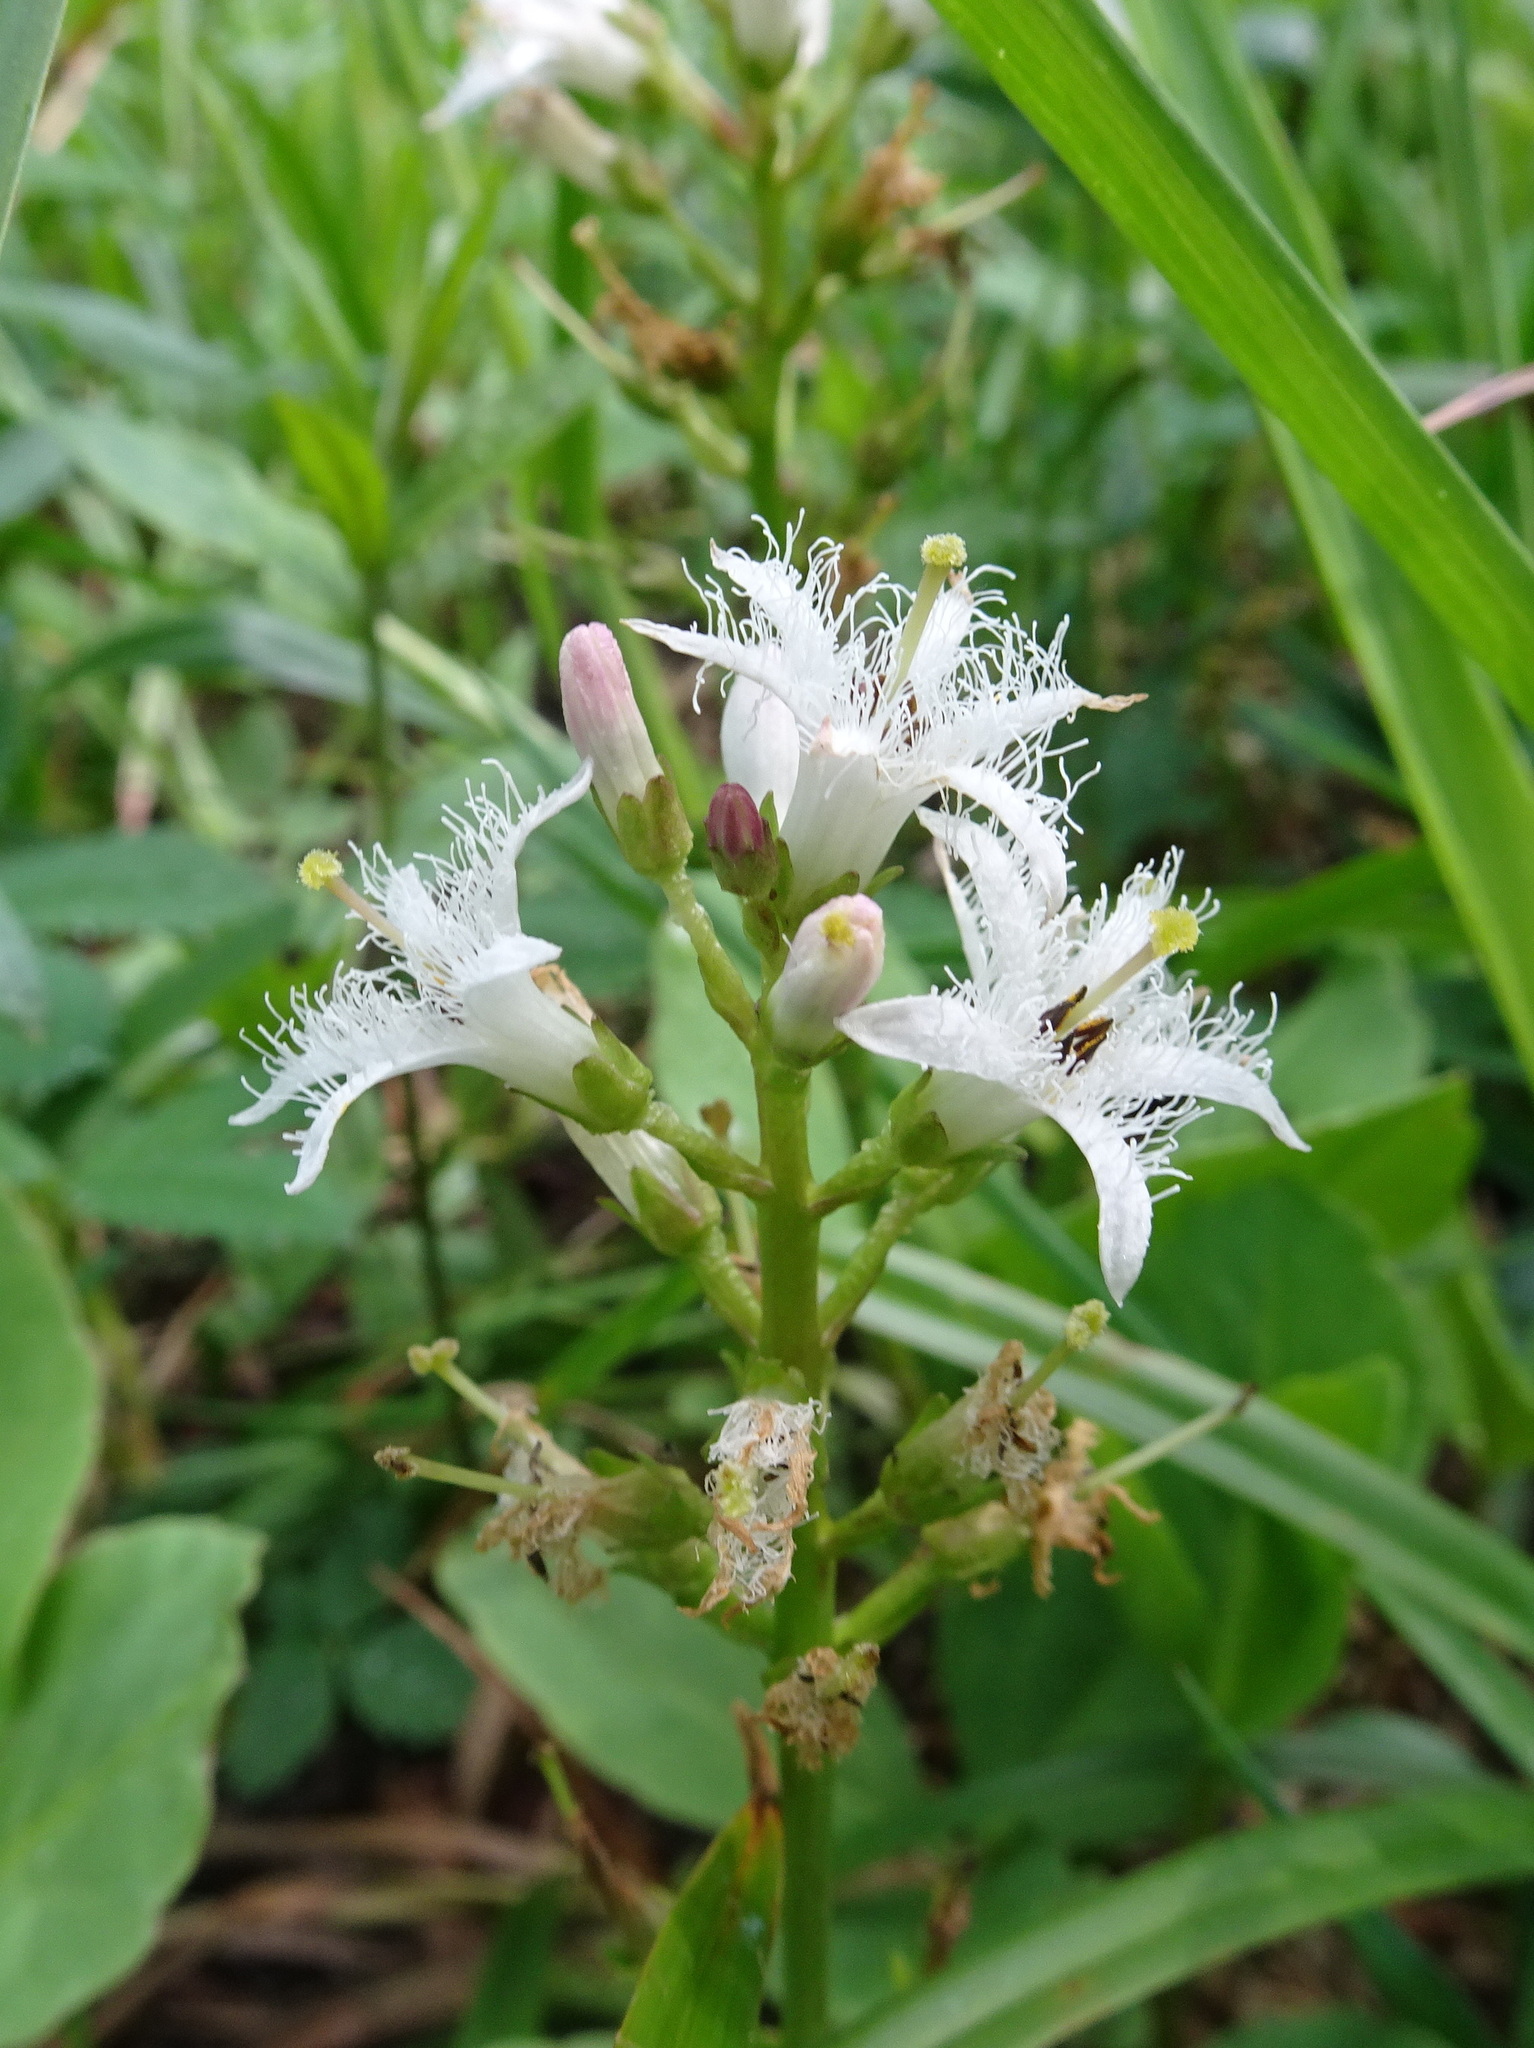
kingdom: Plantae
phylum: Tracheophyta
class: Magnoliopsida
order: Asterales
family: Menyanthaceae
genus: Menyanthes
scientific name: Menyanthes trifoliata
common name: Bogbean
